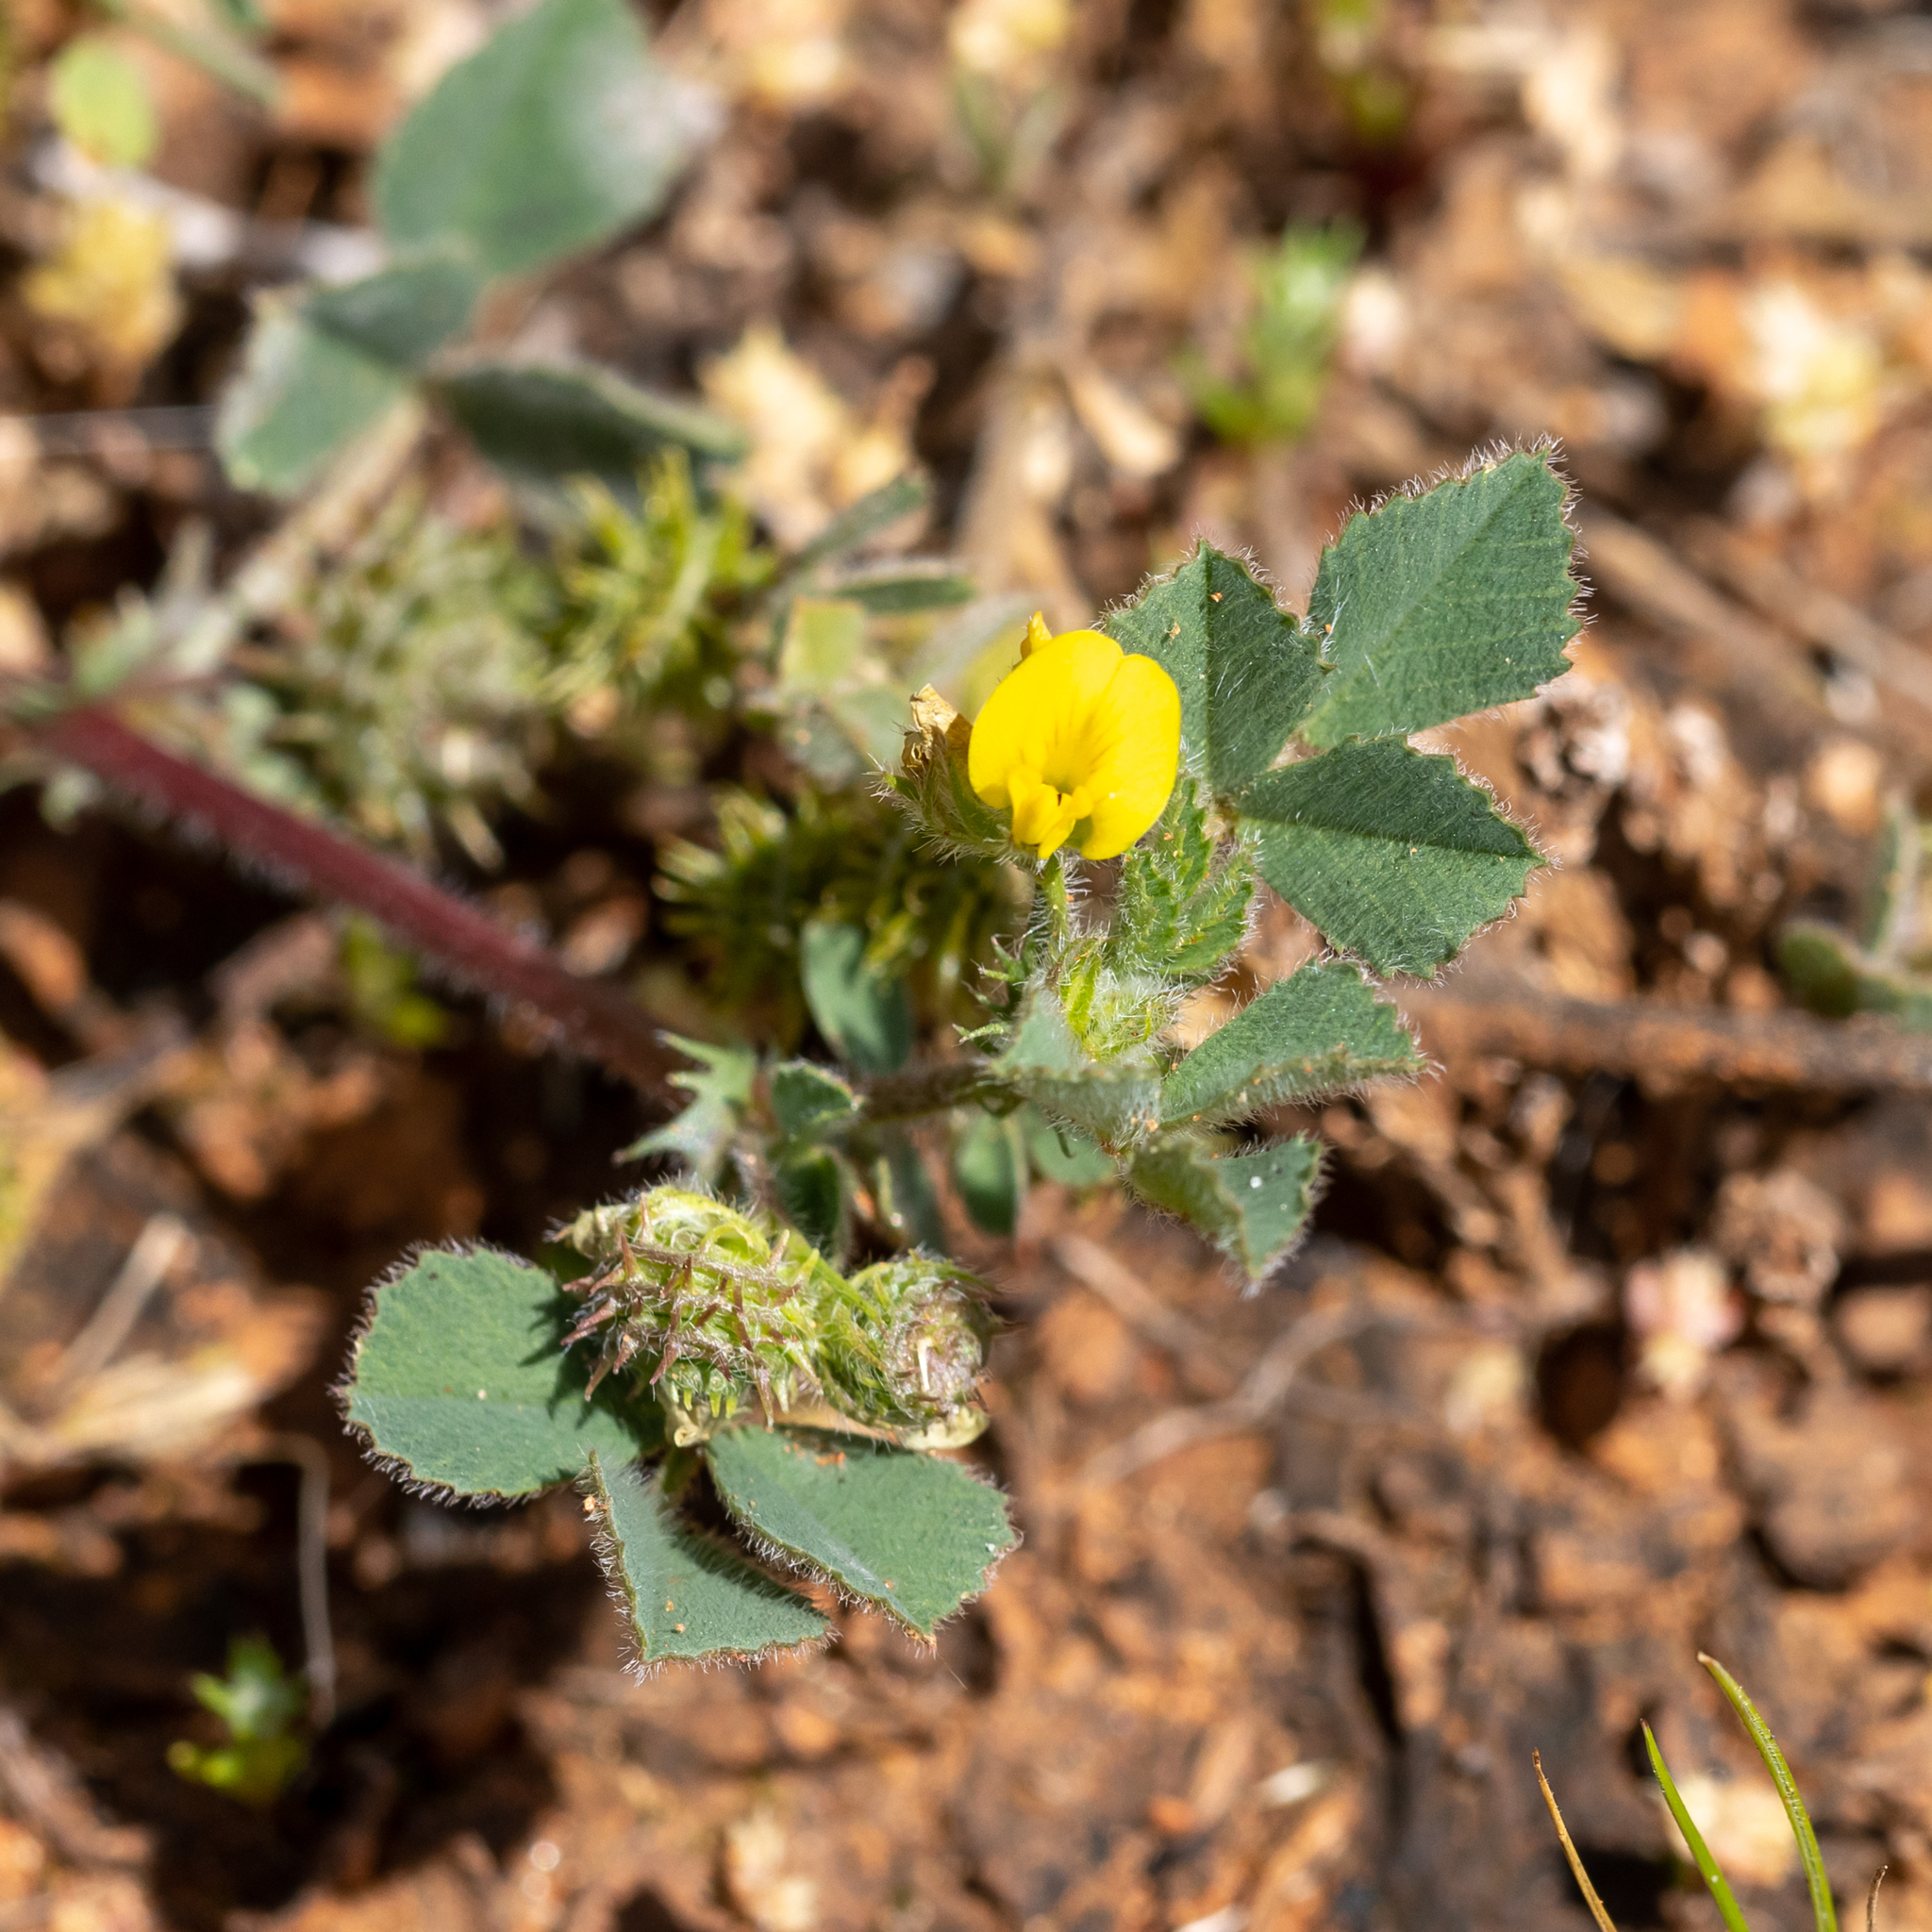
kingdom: Plantae
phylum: Tracheophyta
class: Magnoliopsida
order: Fabales
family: Fabaceae
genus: Medicago
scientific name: Medicago minima
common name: Little bur-clover
